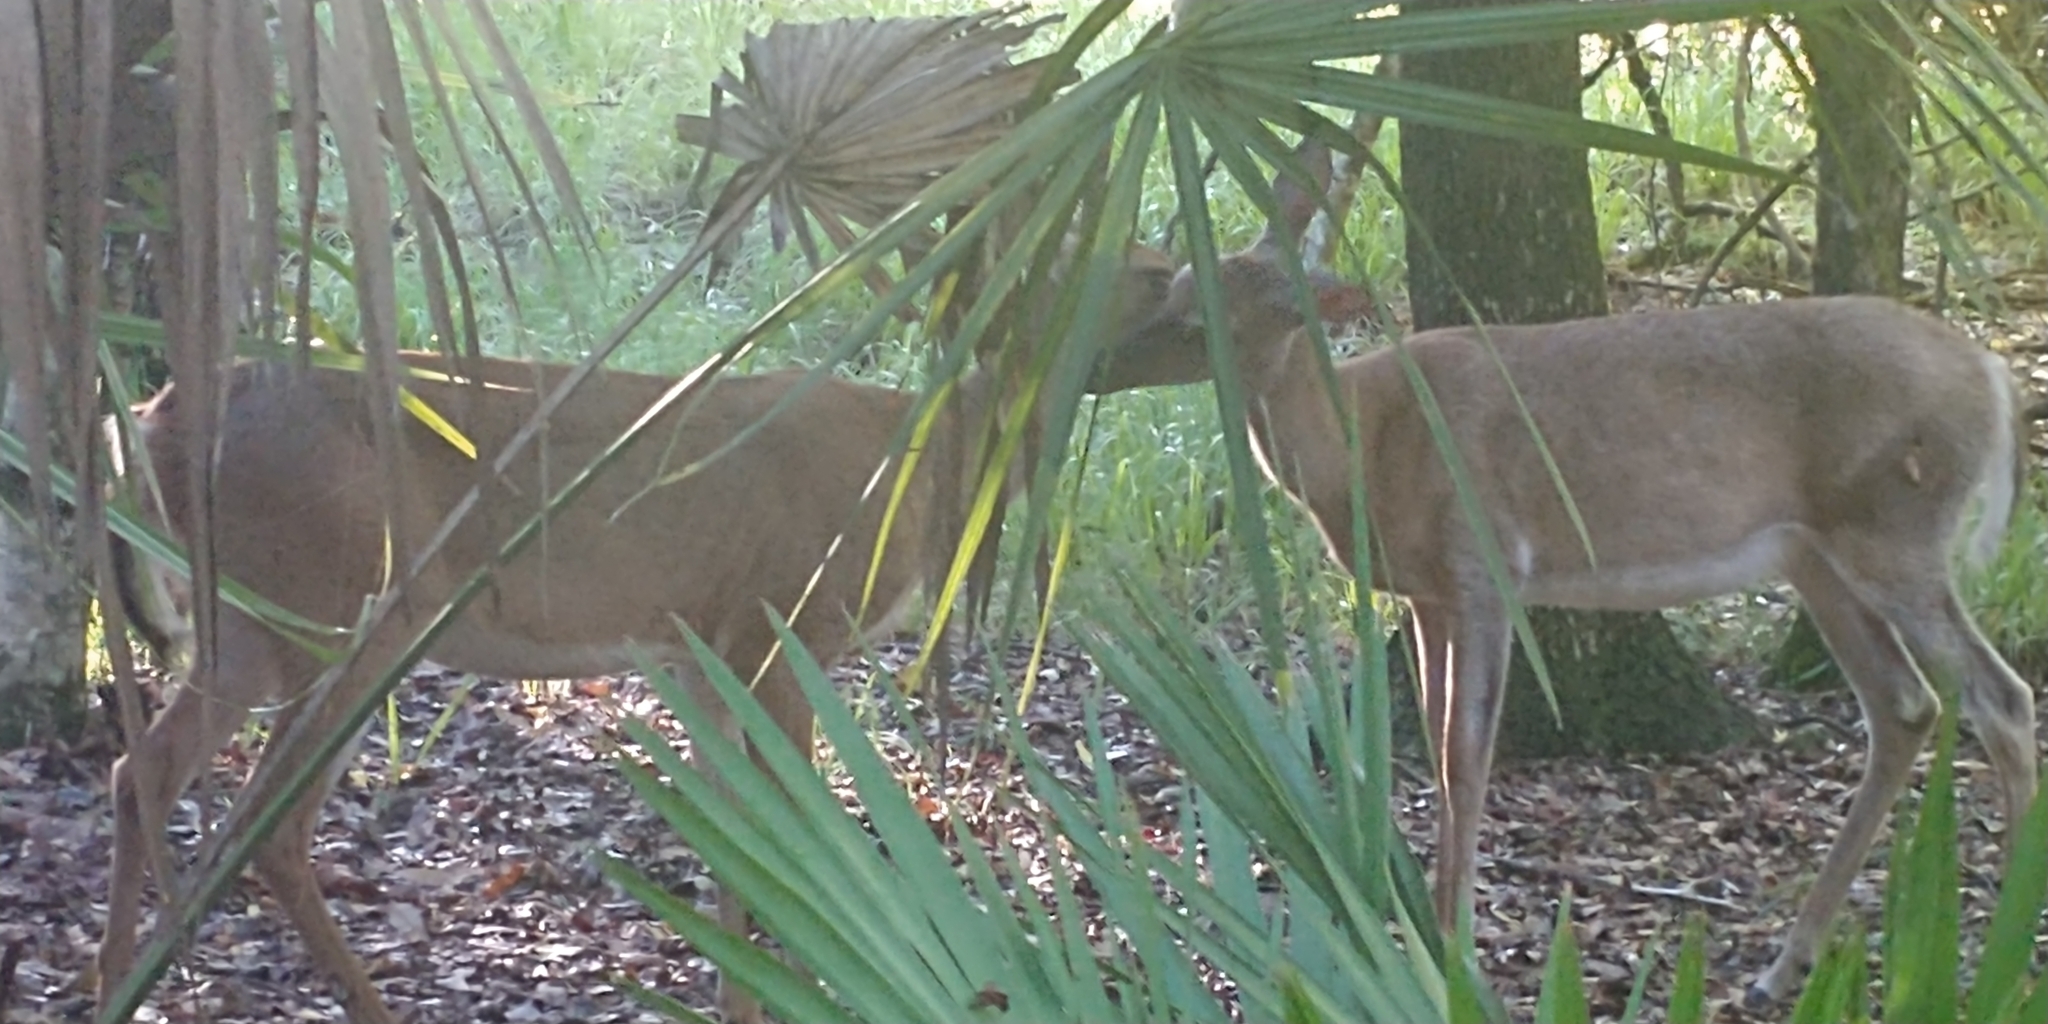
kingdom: Animalia
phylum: Chordata
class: Mammalia
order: Artiodactyla
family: Cervidae
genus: Odocoileus
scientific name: Odocoileus virginianus
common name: White-tailed deer
